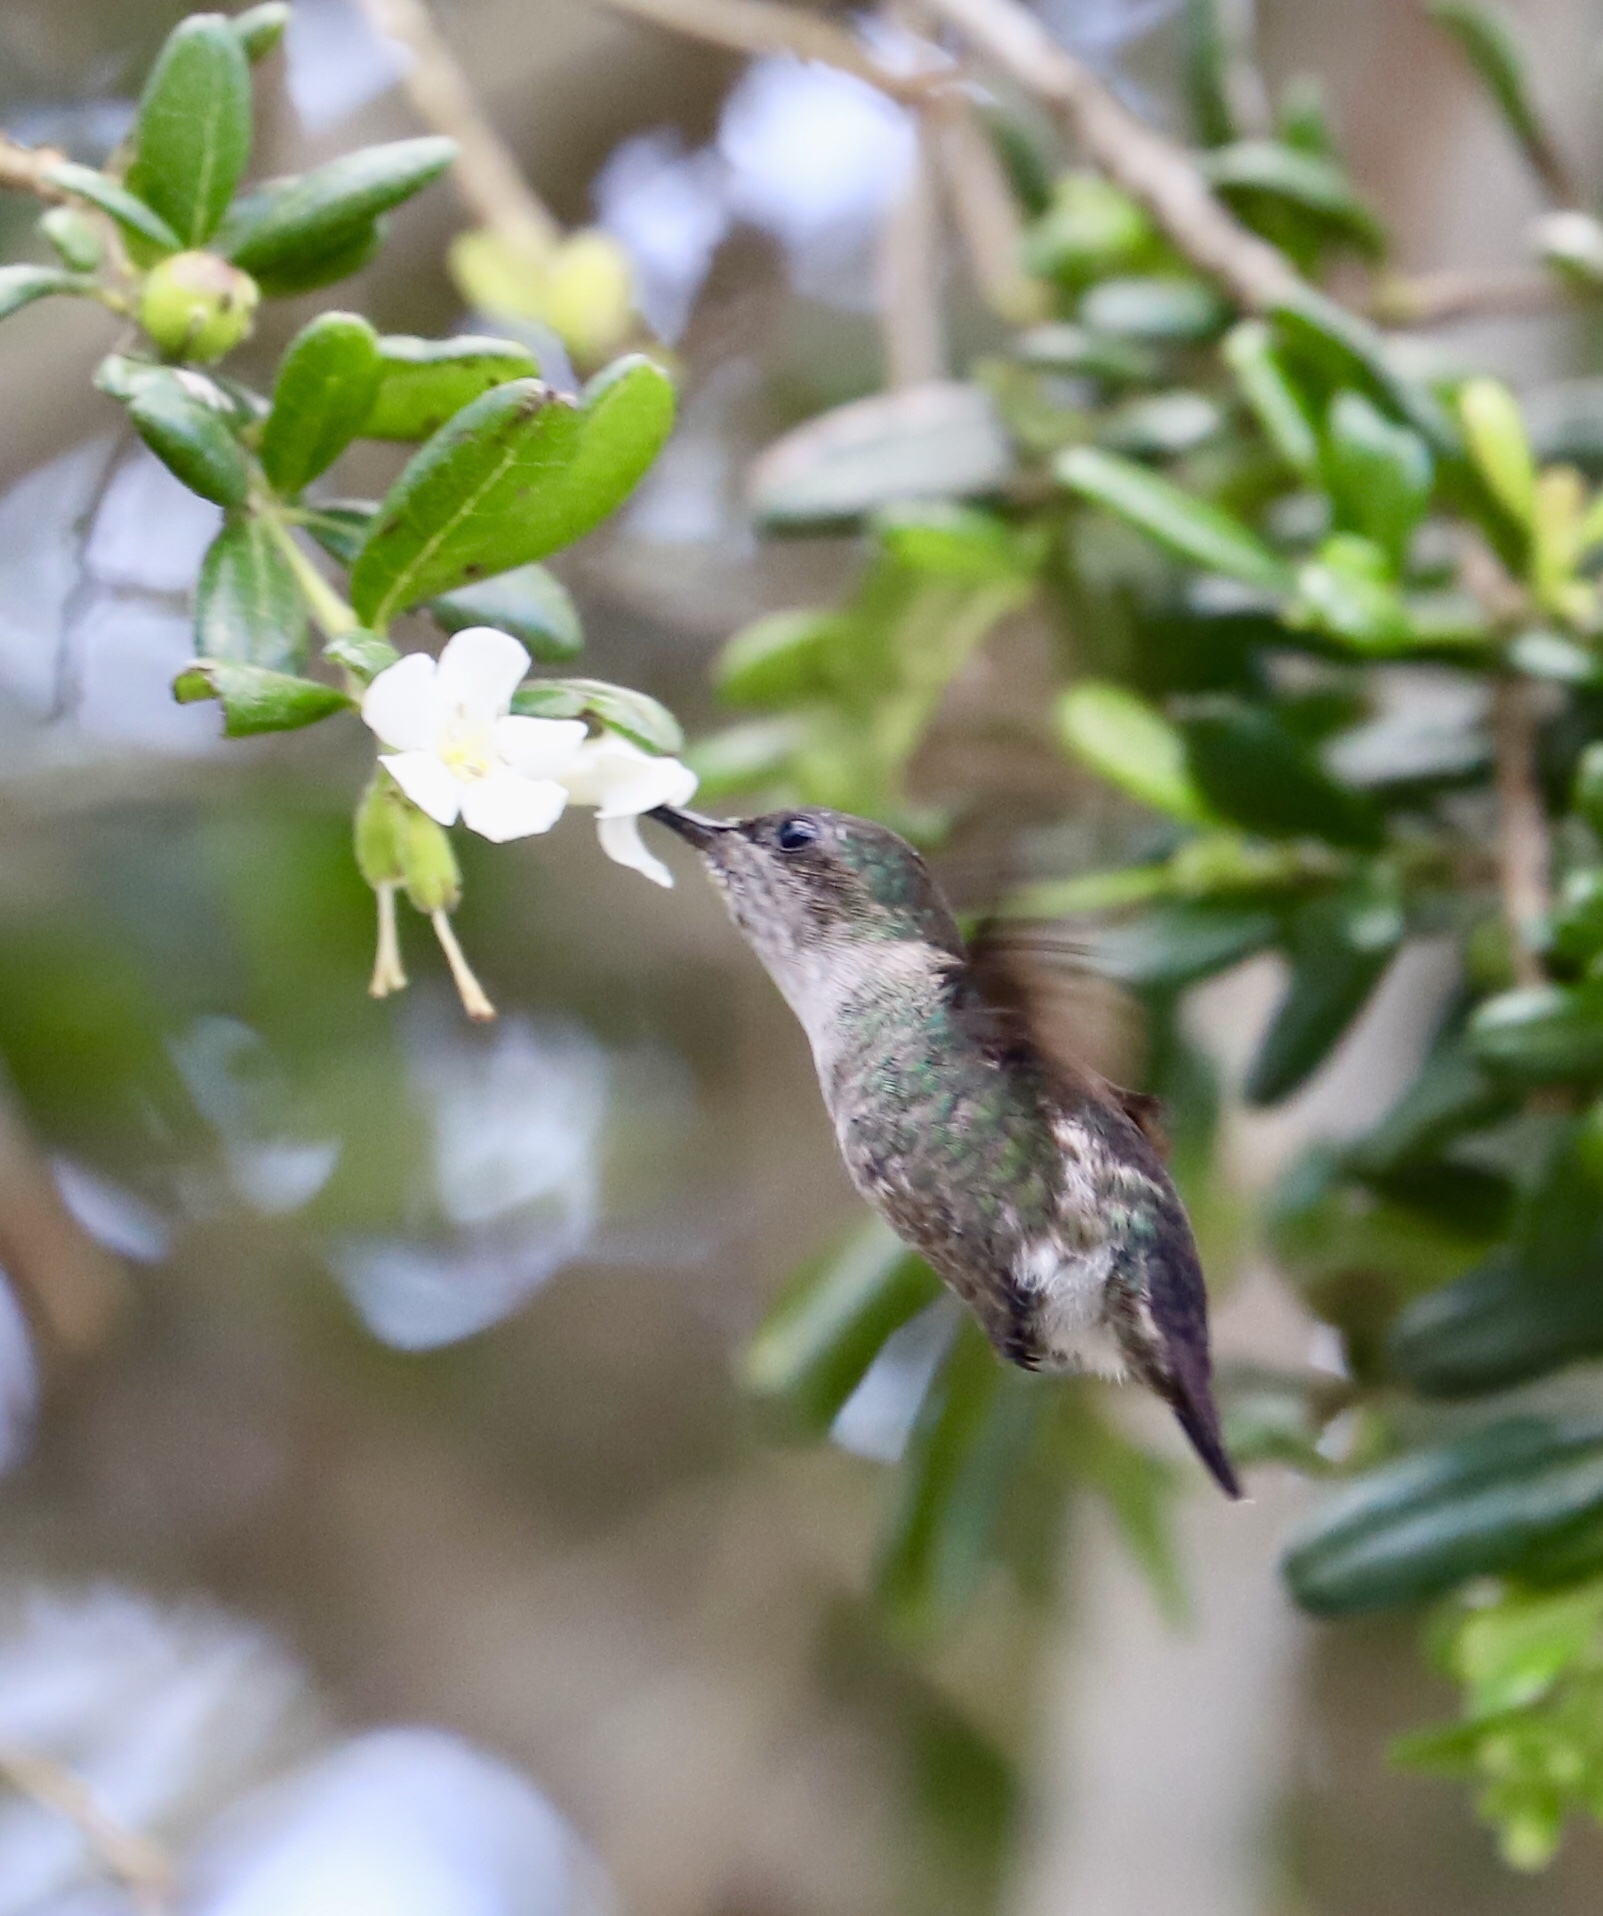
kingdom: Animalia
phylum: Chordata
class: Aves
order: Apodiformes
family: Trochilidae
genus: Mellisuga
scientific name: Mellisuga minima
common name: Vervain hummingbird
